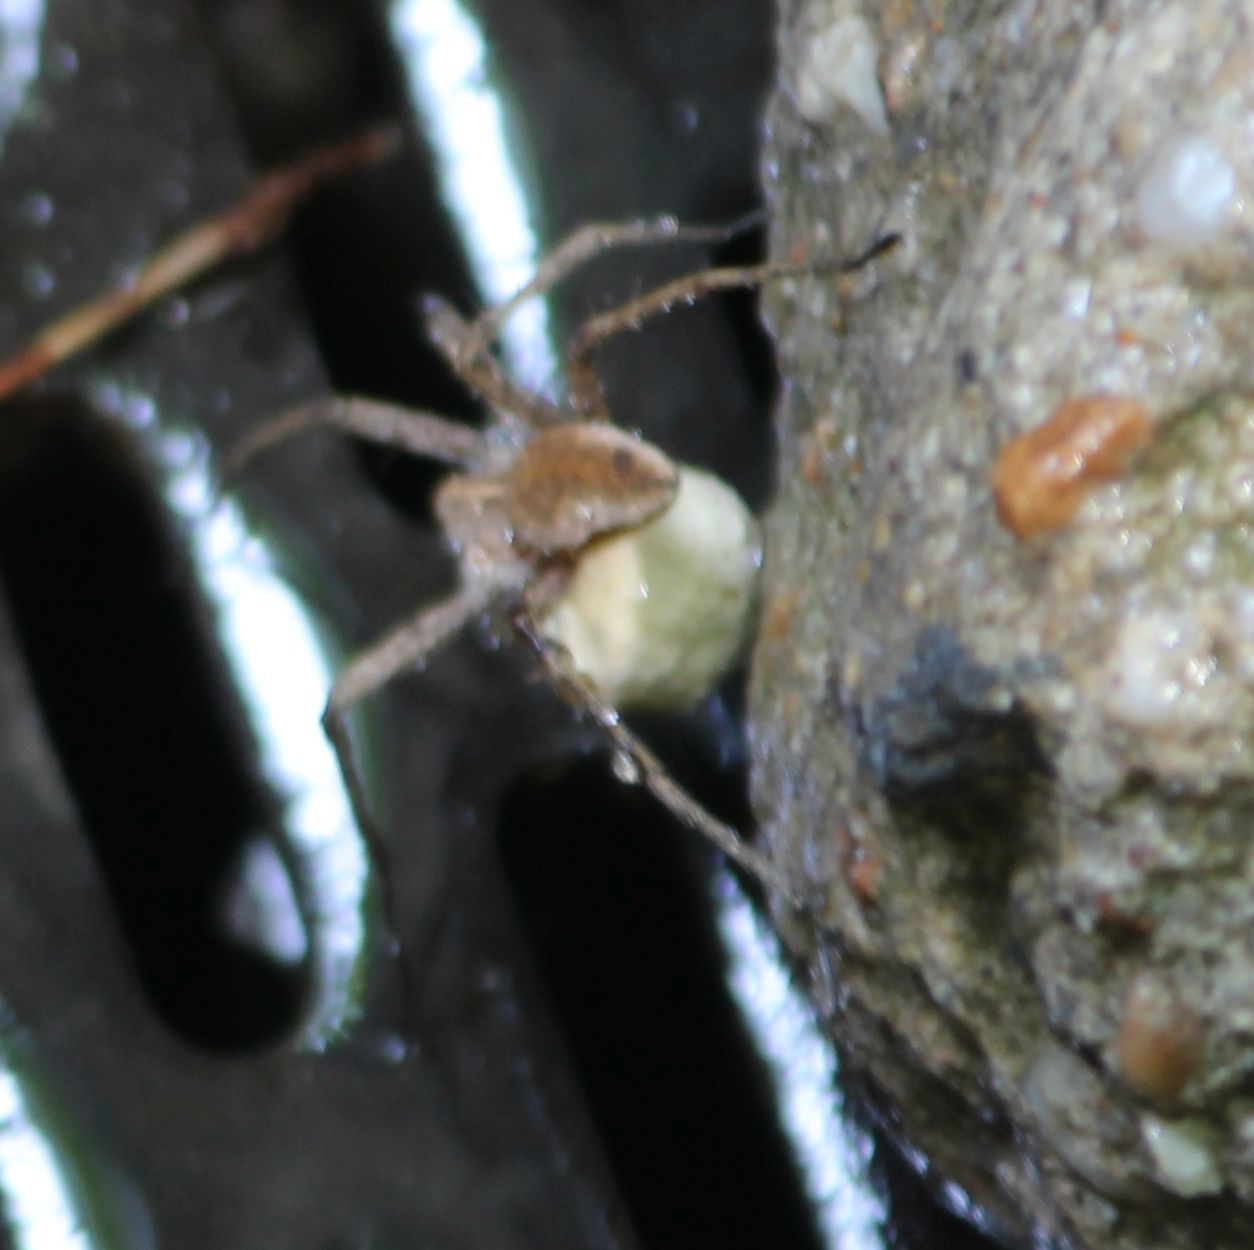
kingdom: Animalia
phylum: Arthropoda
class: Arachnida
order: Araneae
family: Pisauridae
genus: Pisaura
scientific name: Pisaura mirabilis
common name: Tent spider
